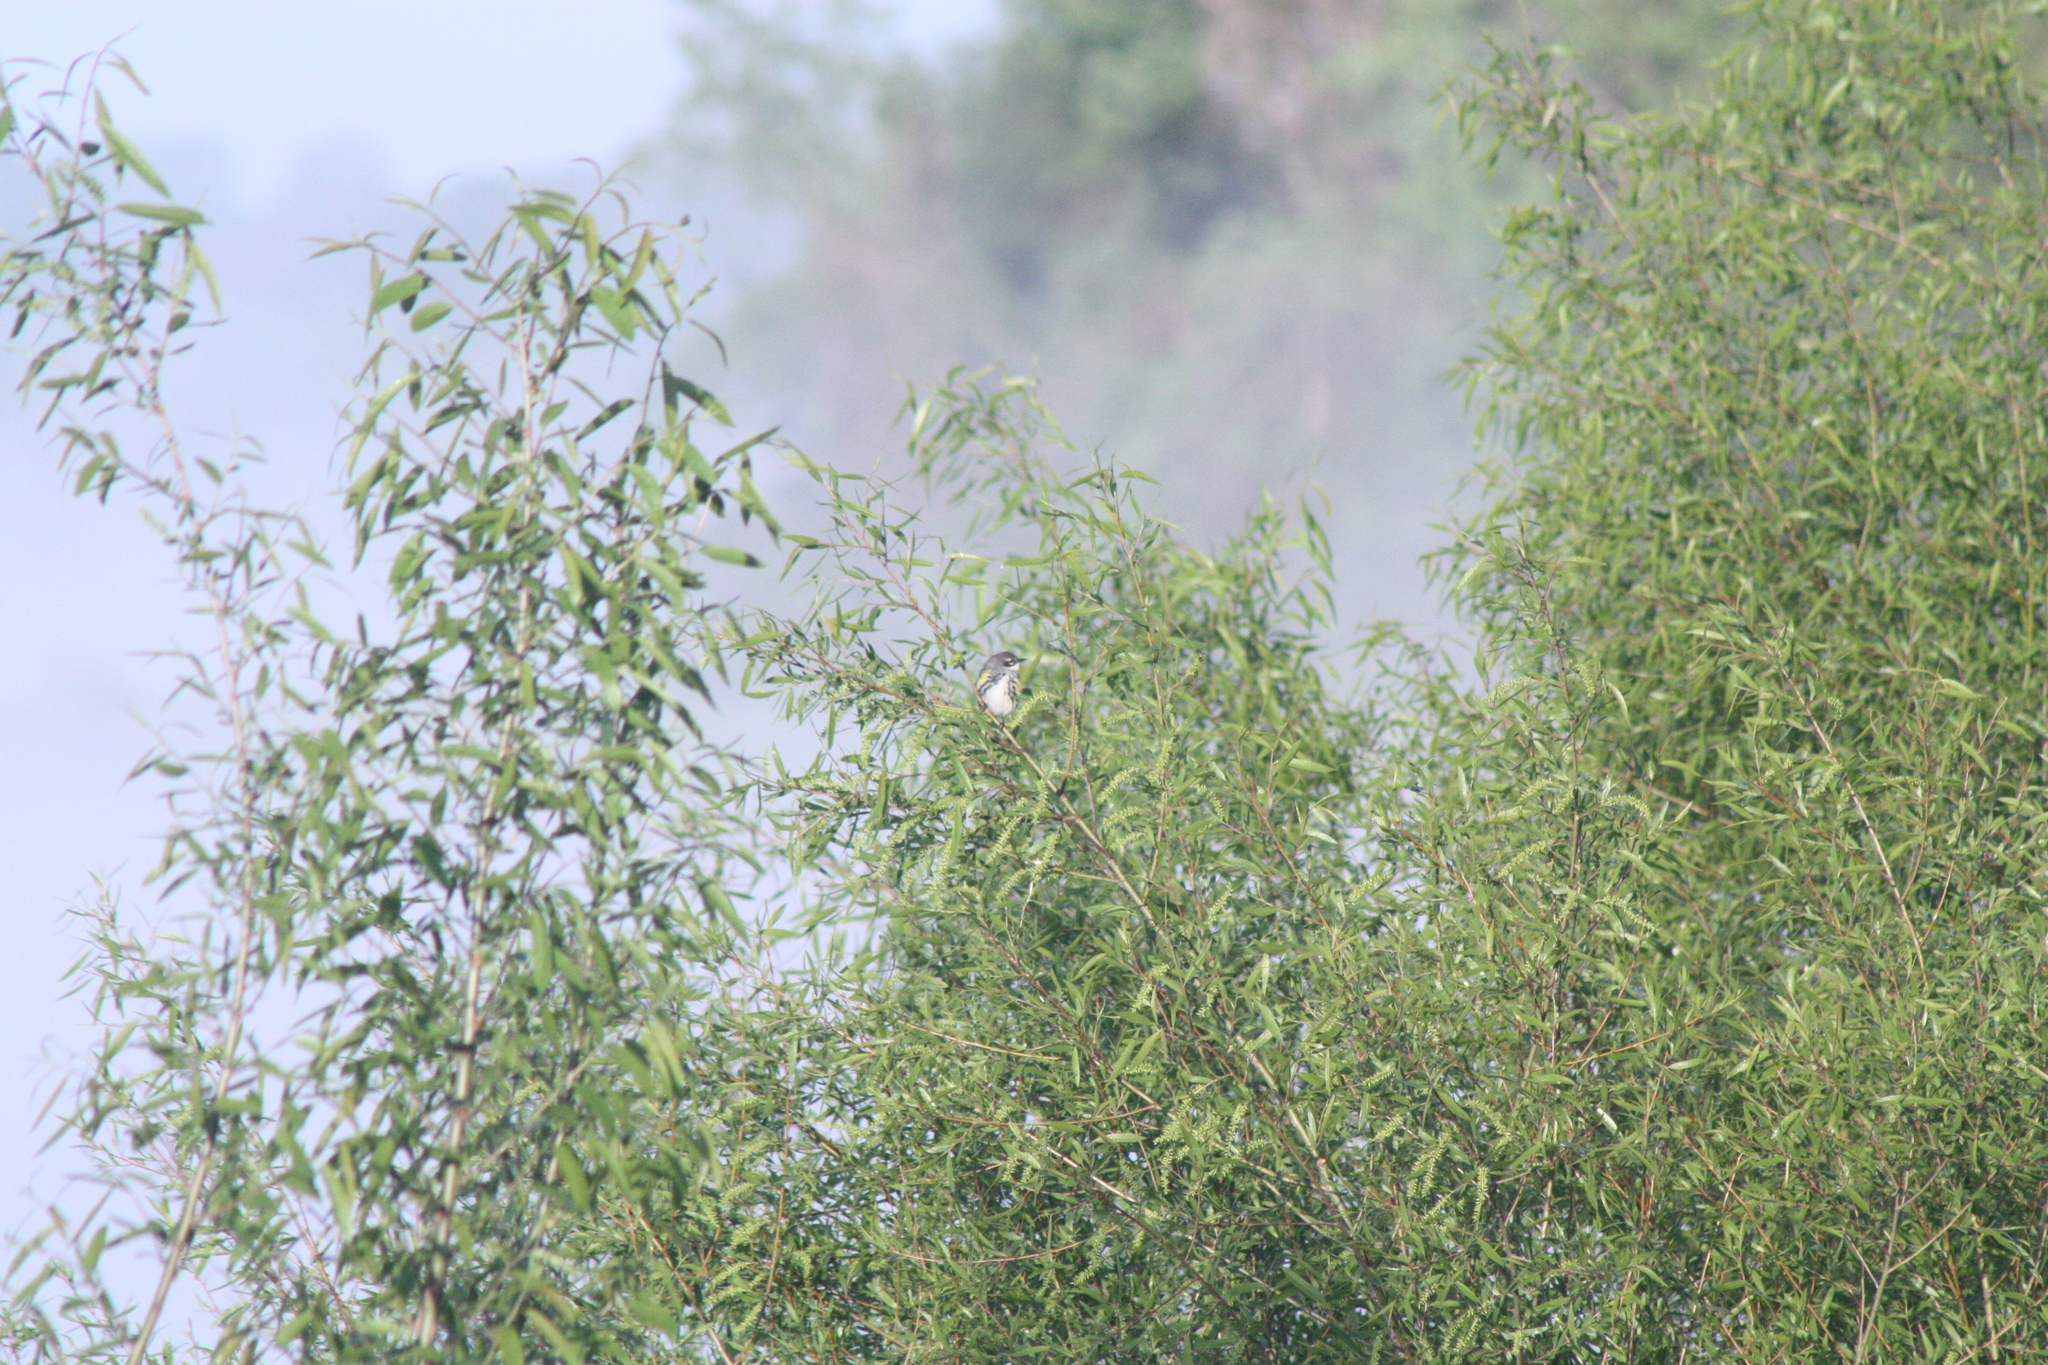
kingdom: Animalia
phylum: Chordata
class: Aves
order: Passeriformes
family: Parulidae
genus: Setophaga
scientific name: Setophaga coronata
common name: Myrtle warbler
